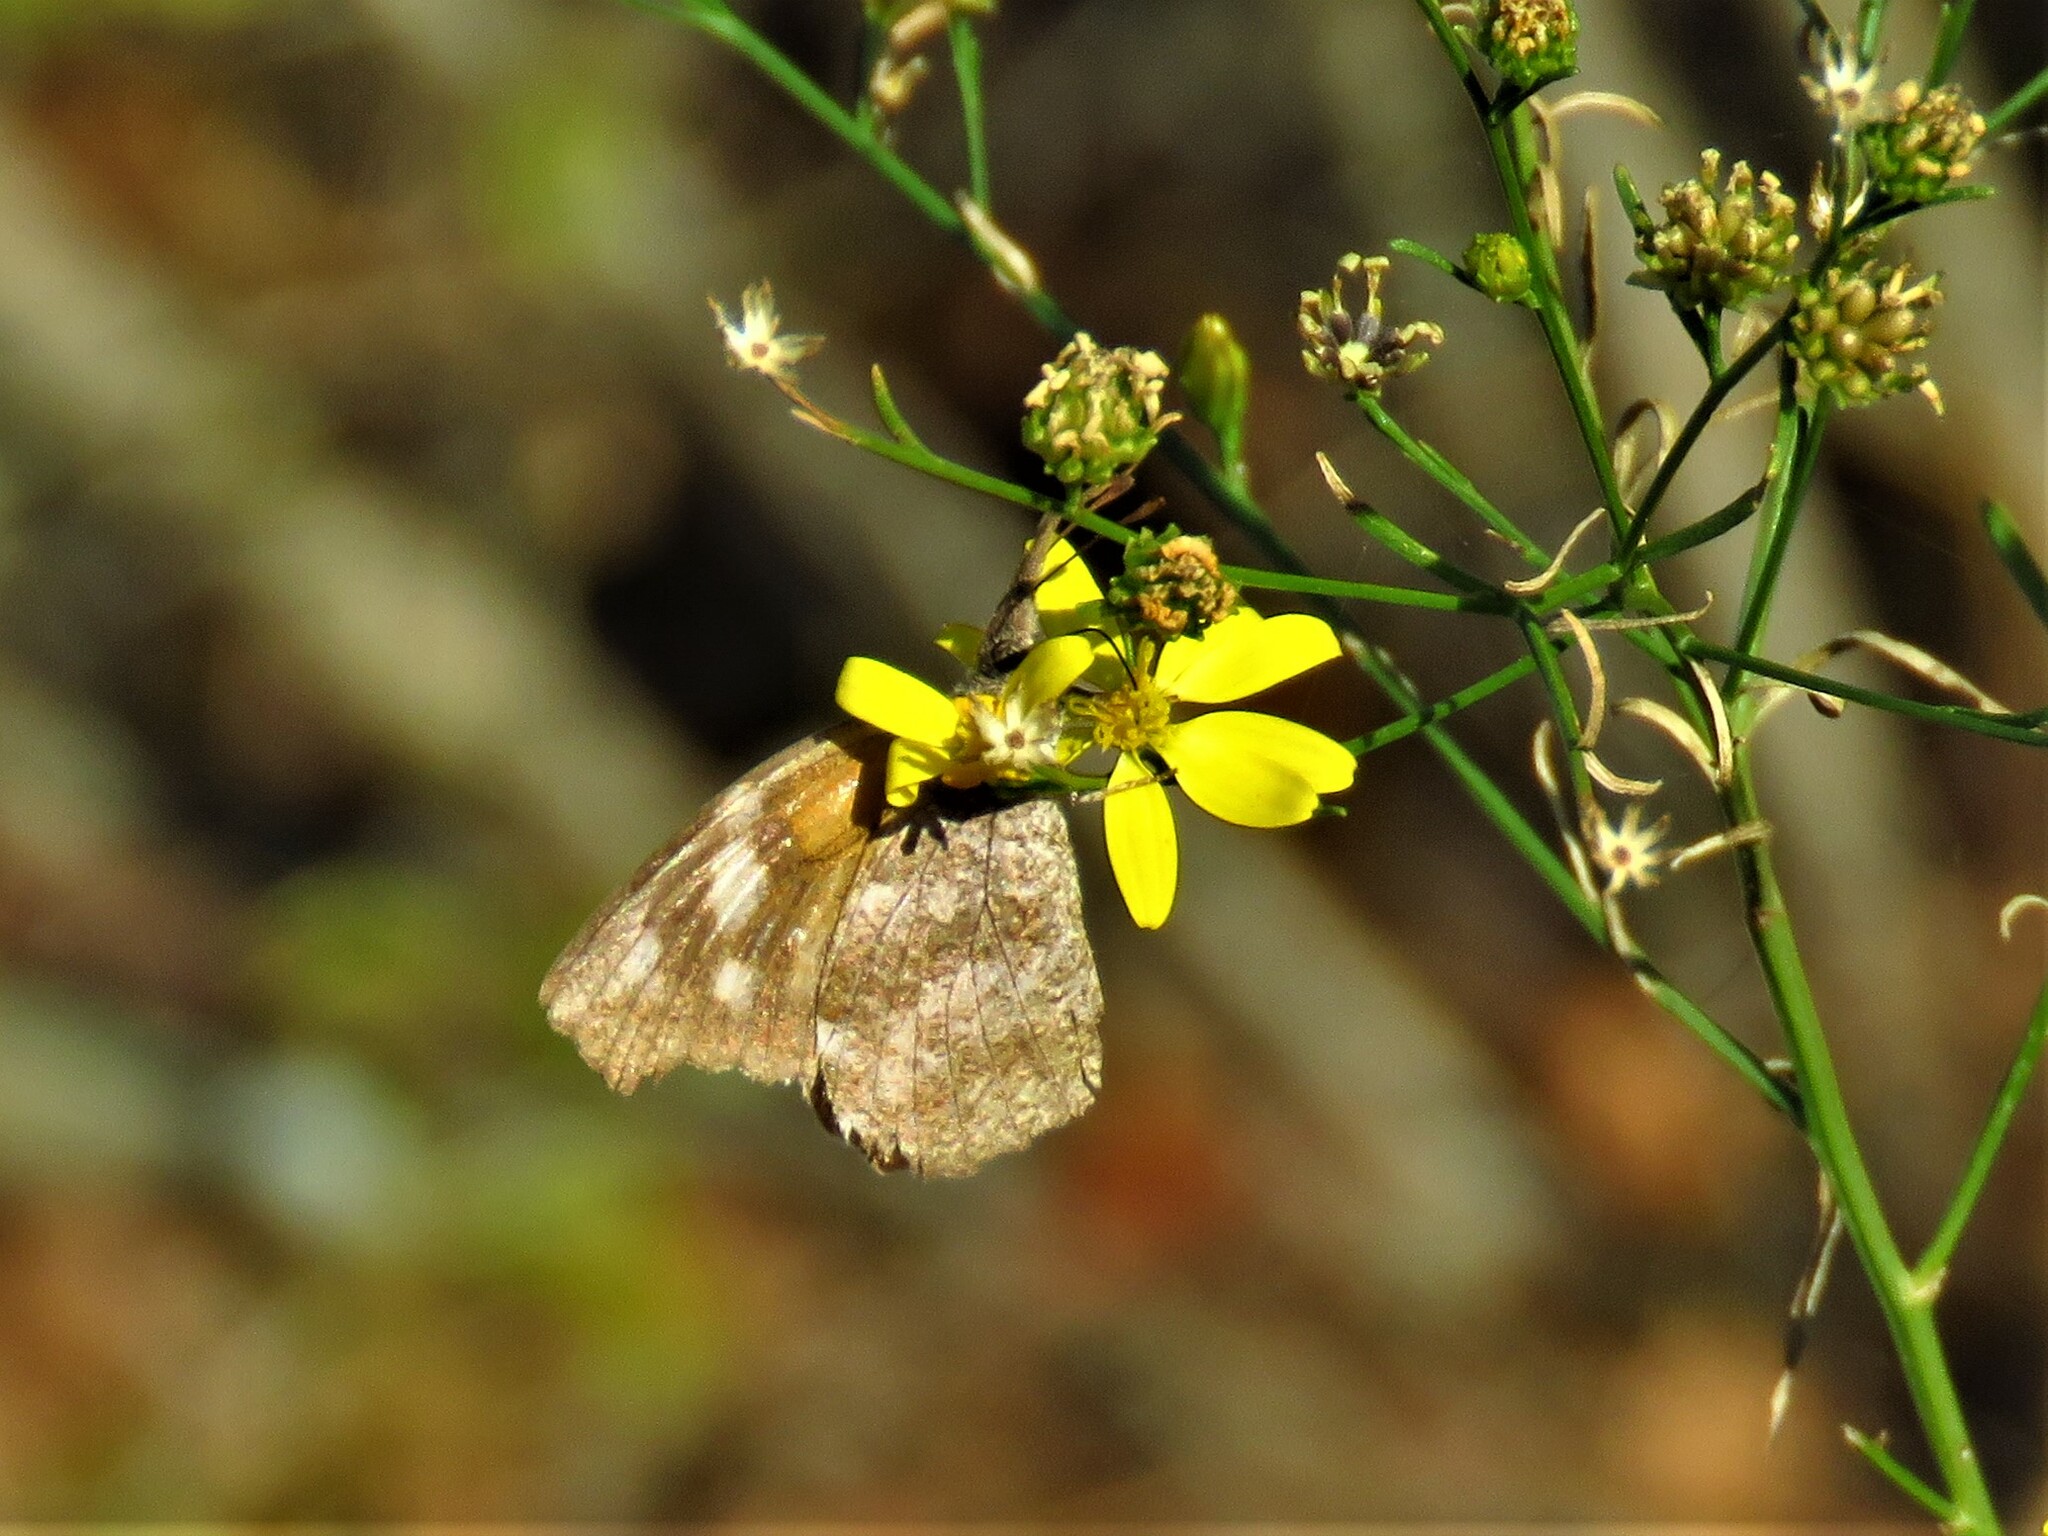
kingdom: Animalia
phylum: Arthropoda
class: Insecta
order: Lepidoptera
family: Nymphalidae
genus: Libytheana
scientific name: Libytheana carinenta
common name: American snout
